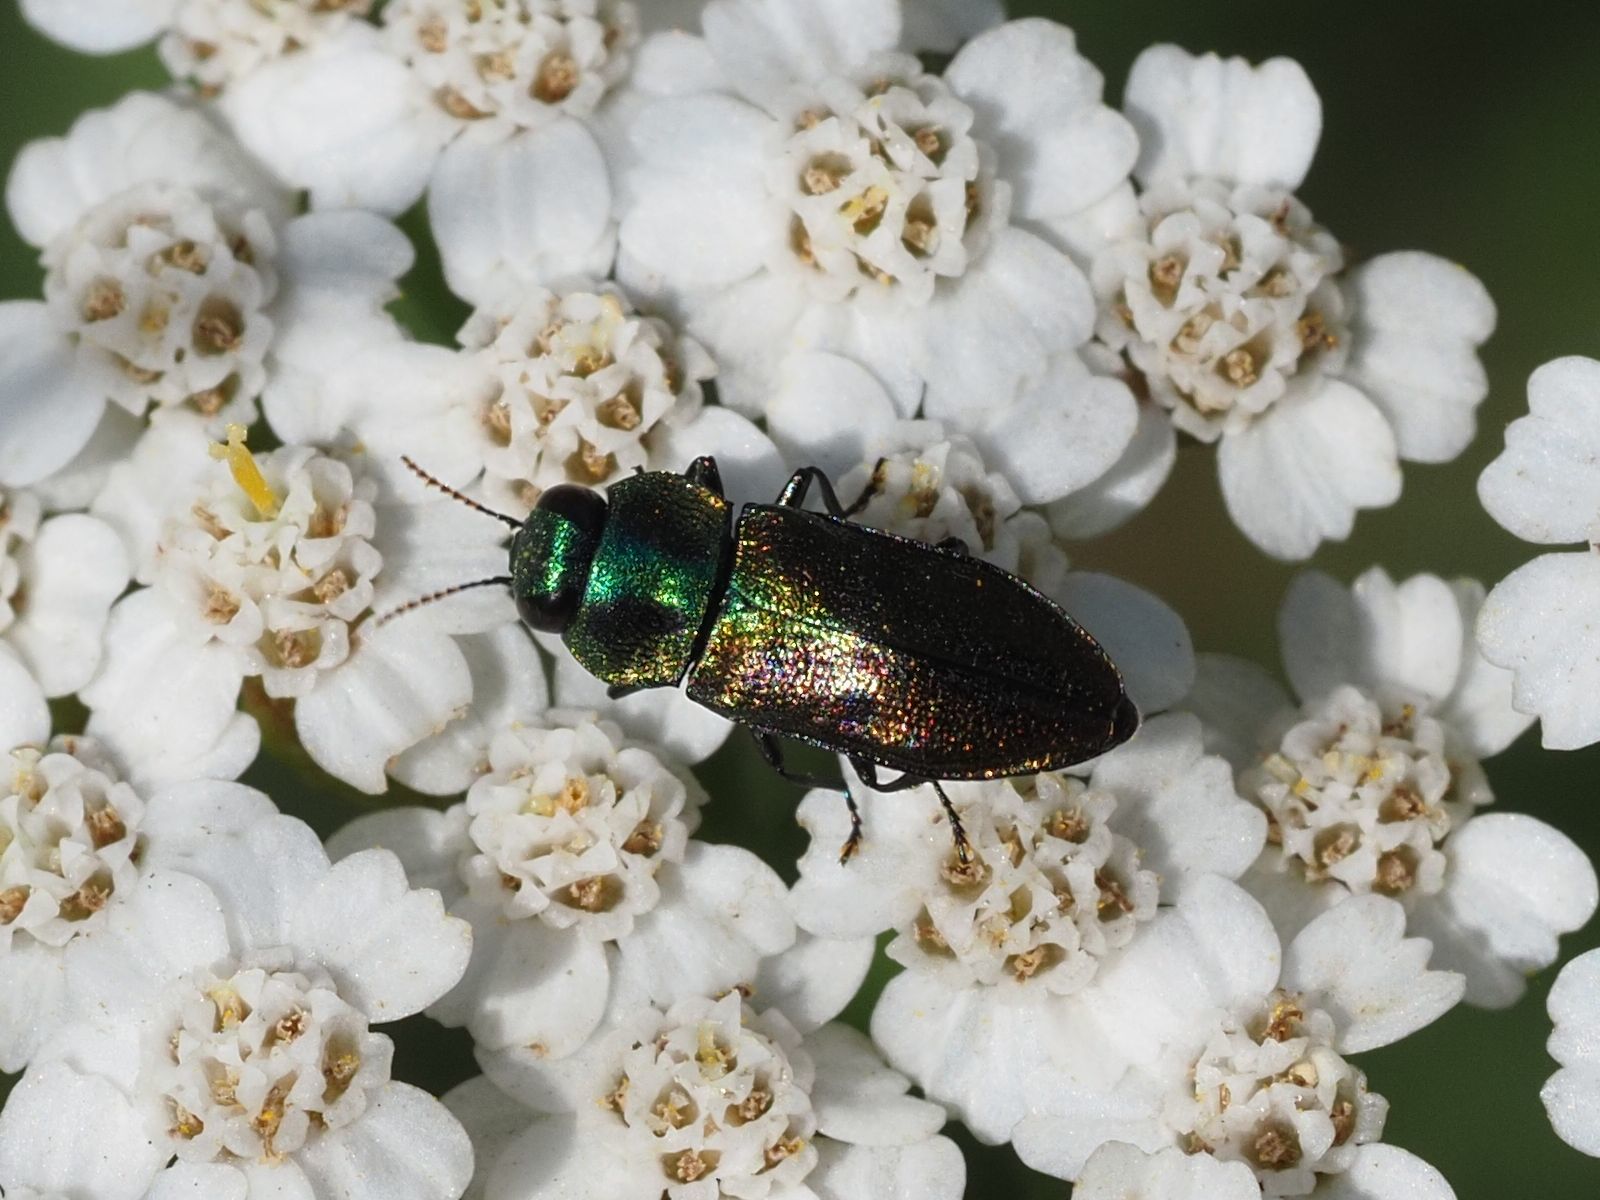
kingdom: Animalia
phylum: Arthropoda
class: Insecta
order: Coleoptera
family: Buprestidae
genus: Anthaxia
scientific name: Anthaxia podolica
